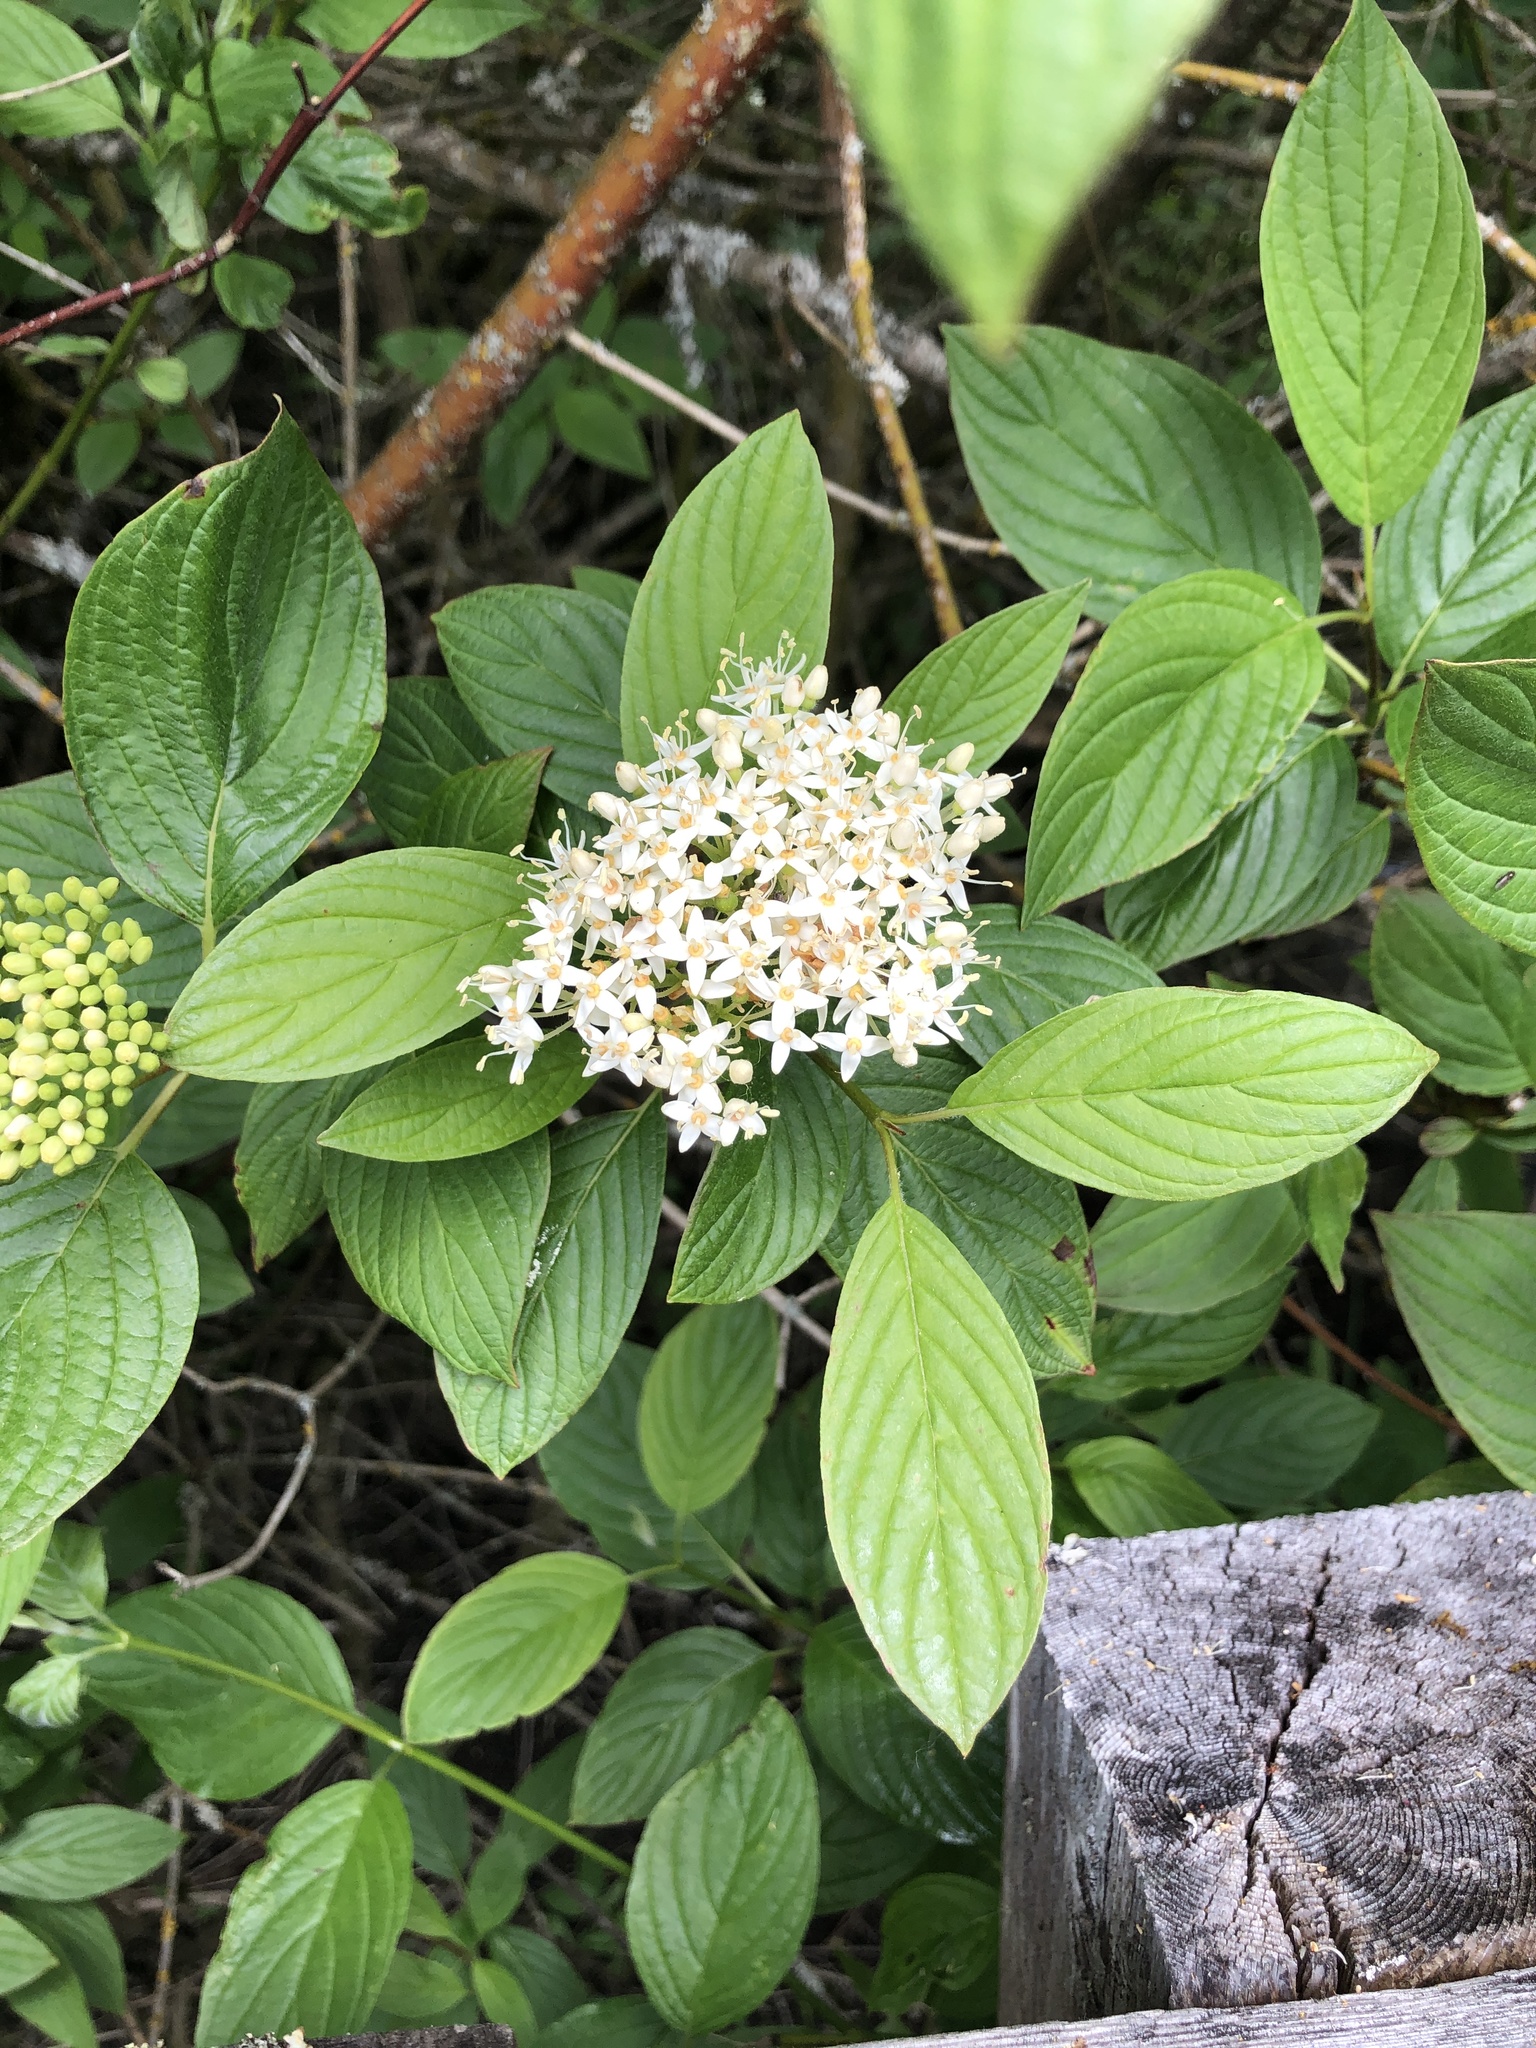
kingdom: Plantae
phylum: Tracheophyta
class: Magnoliopsida
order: Cornales
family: Cornaceae
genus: Cornus
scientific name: Cornus sericea
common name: Red-osier dogwood
